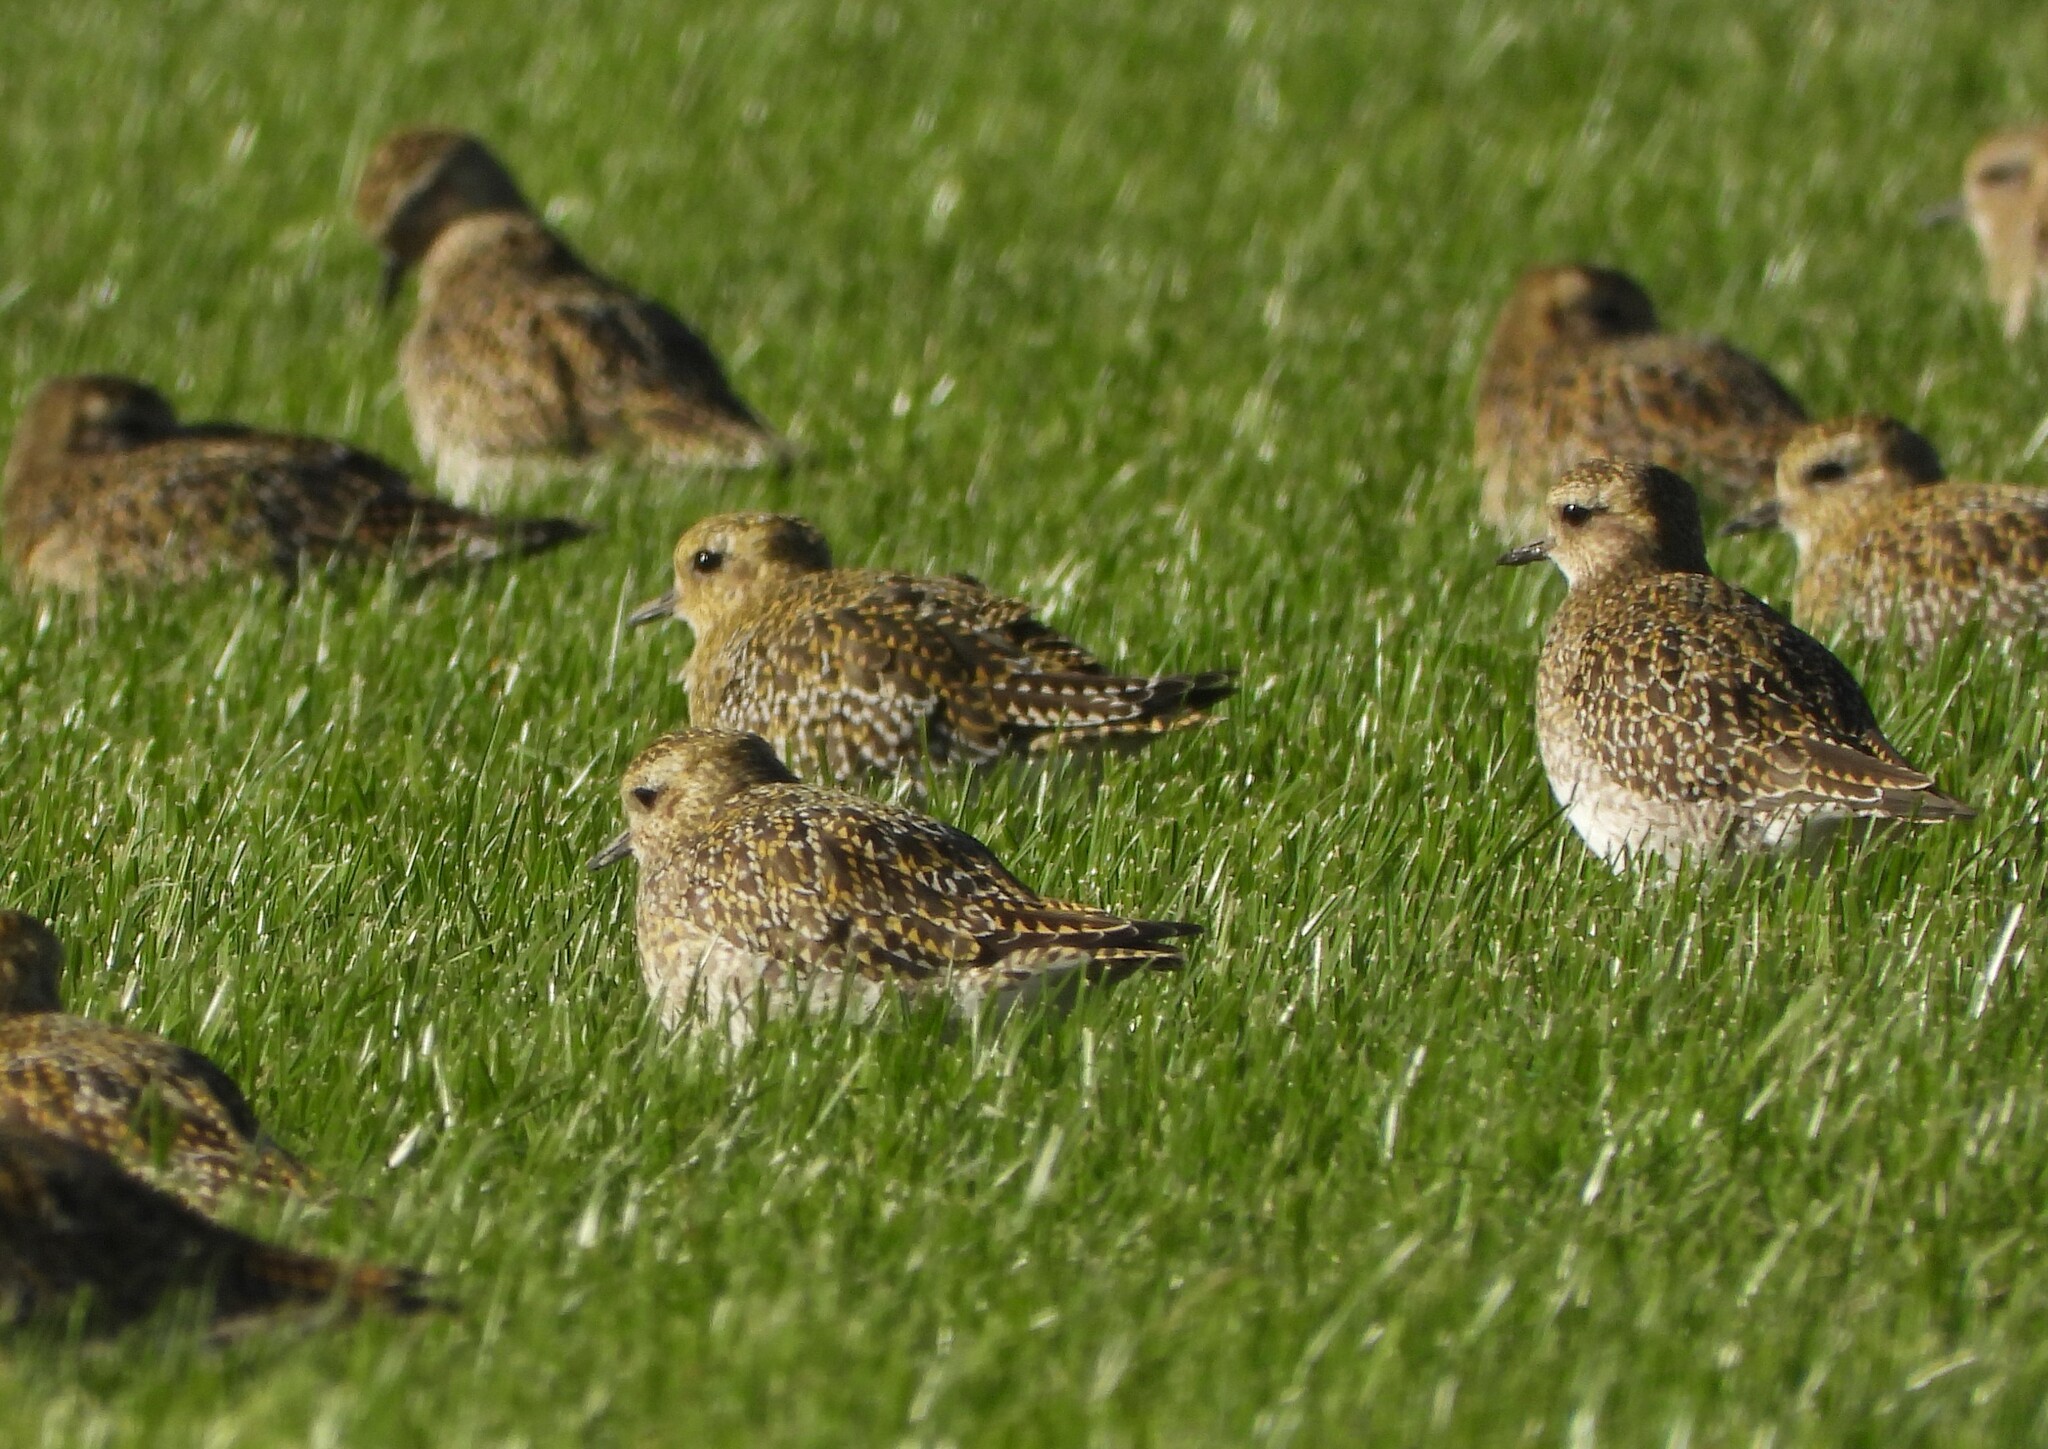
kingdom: Animalia
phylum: Chordata
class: Aves
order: Charadriiformes
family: Charadriidae
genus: Pluvialis
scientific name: Pluvialis apricaria
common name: European golden plover
